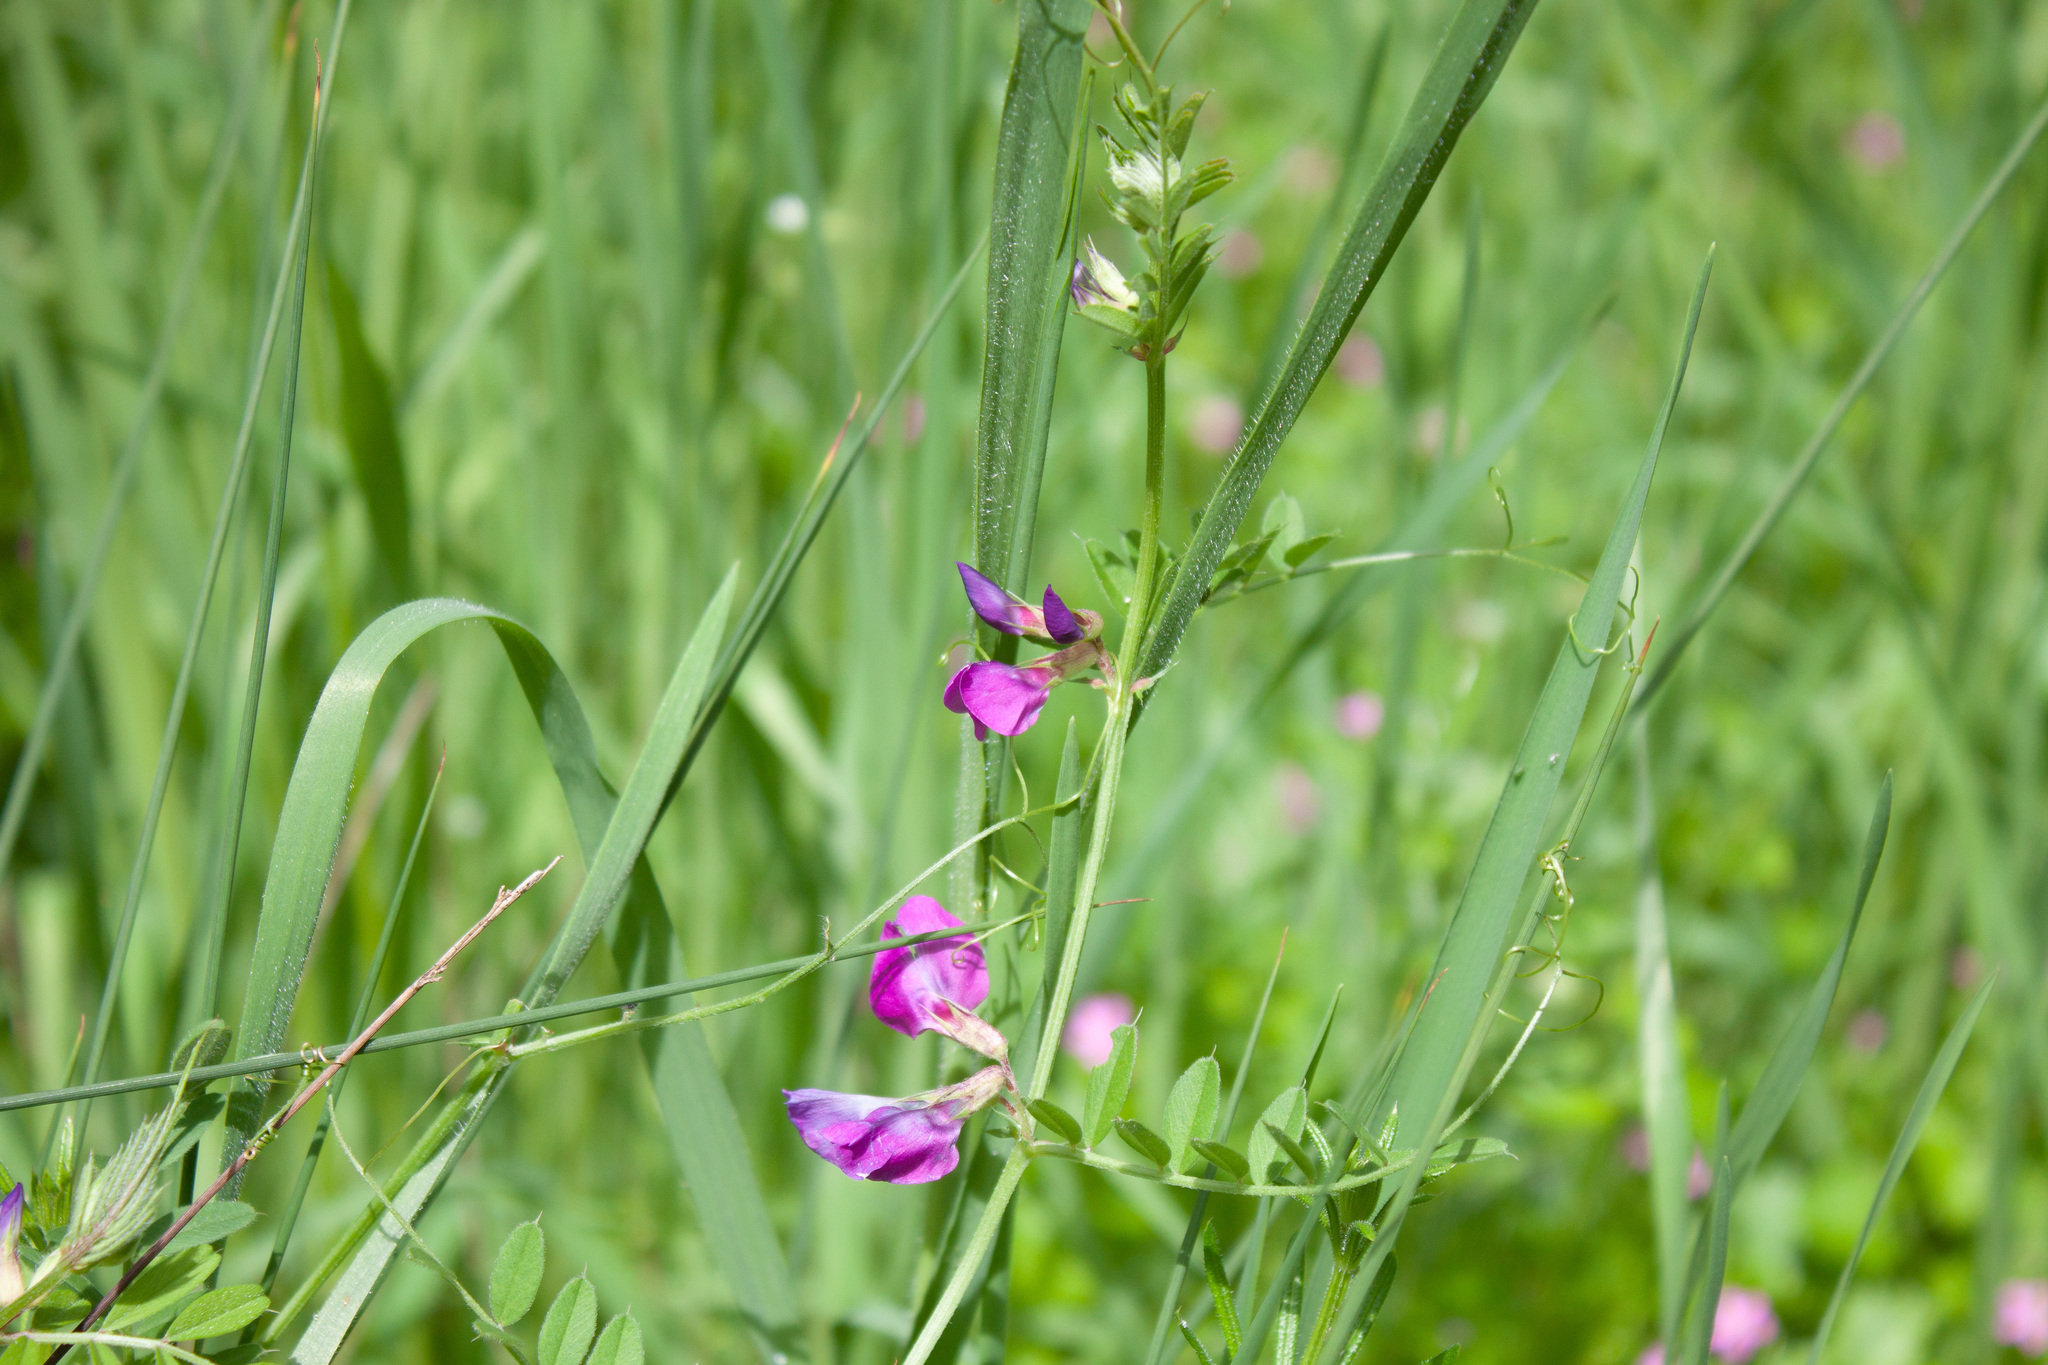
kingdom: Plantae
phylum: Tracheophyta
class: Magnoliopsida
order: Fabales
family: Fabaceae
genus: Vicia
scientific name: Vicia sativa
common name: Garden vetch
